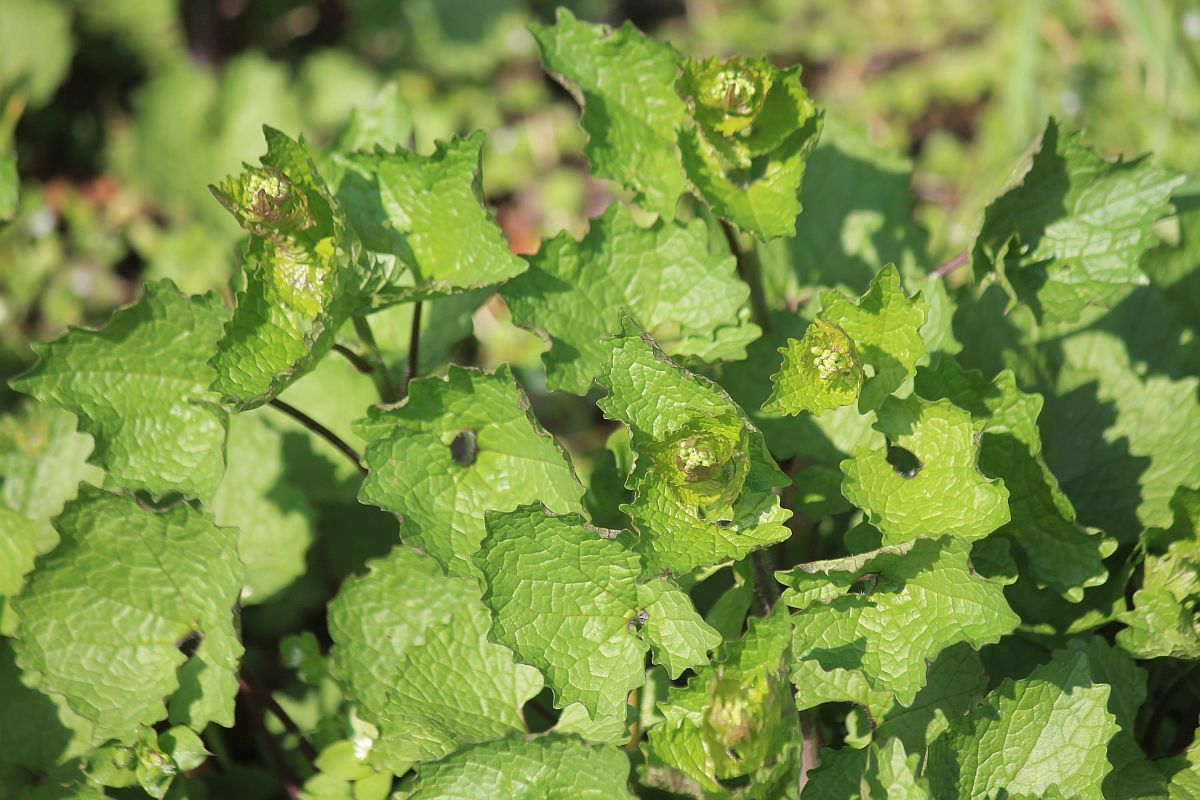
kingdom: Plantae
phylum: Tracheophyta
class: Magnoliopsida
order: Brassicales
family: Brassicaceae
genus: Alliaria
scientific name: Alliaria petiolata
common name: Garlic mustard
